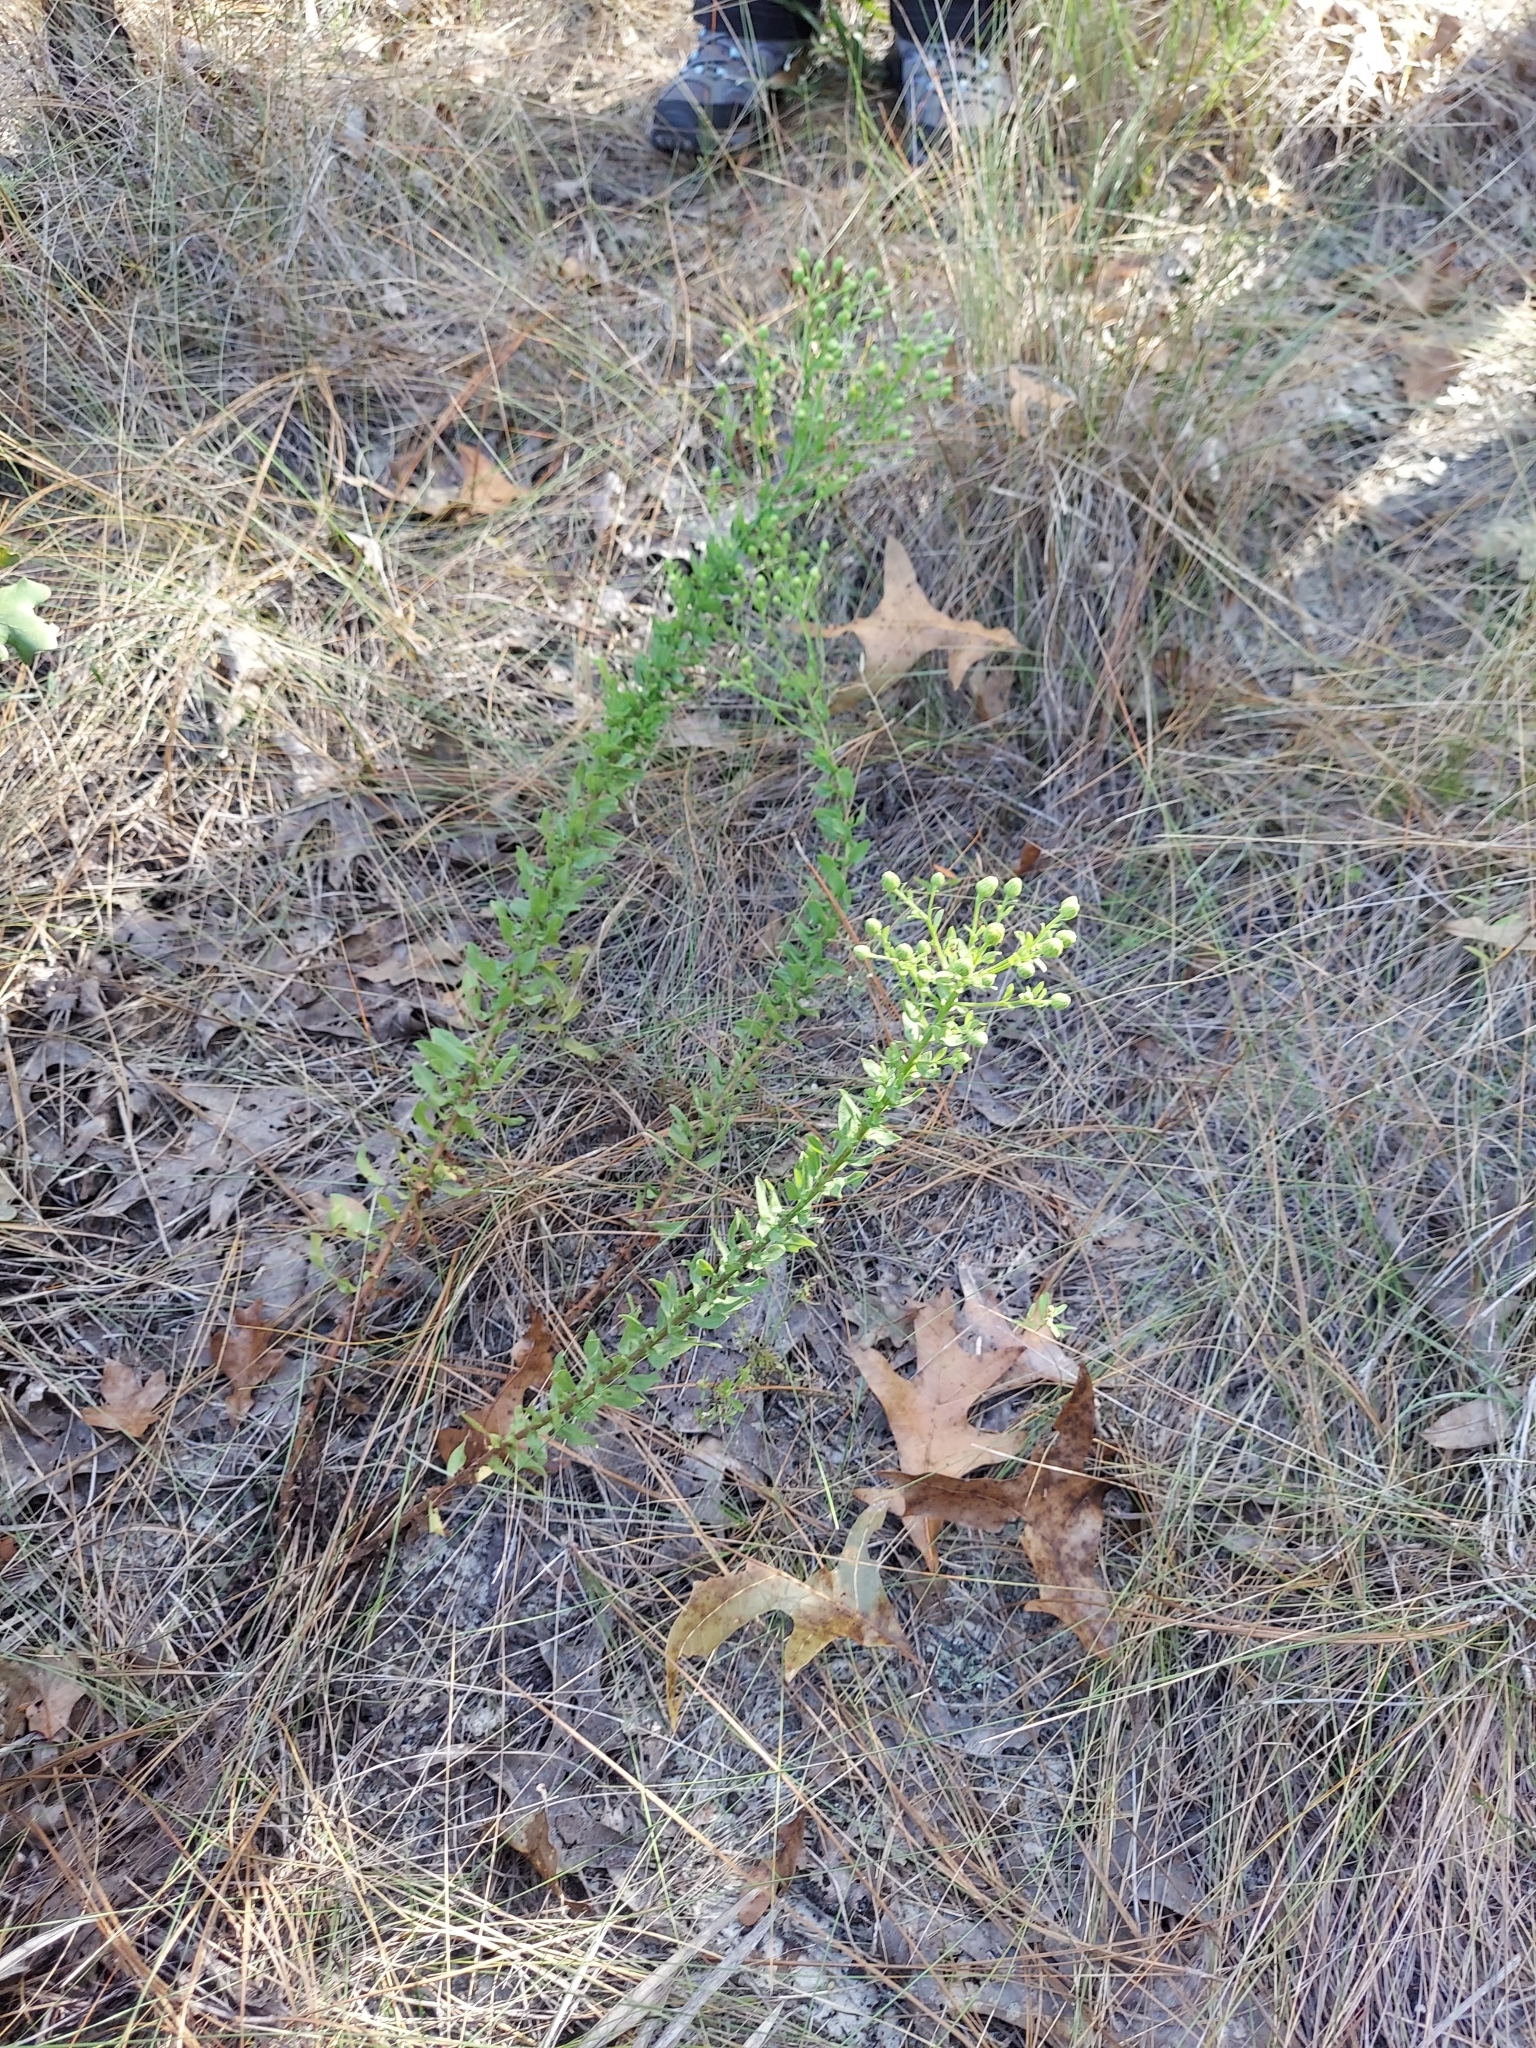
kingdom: Plantae
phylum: Tracheophyta
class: Magnoliopsida
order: Asterales
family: Asteraceae
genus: Chrysopsis
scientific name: Chrysopsis scabrella
